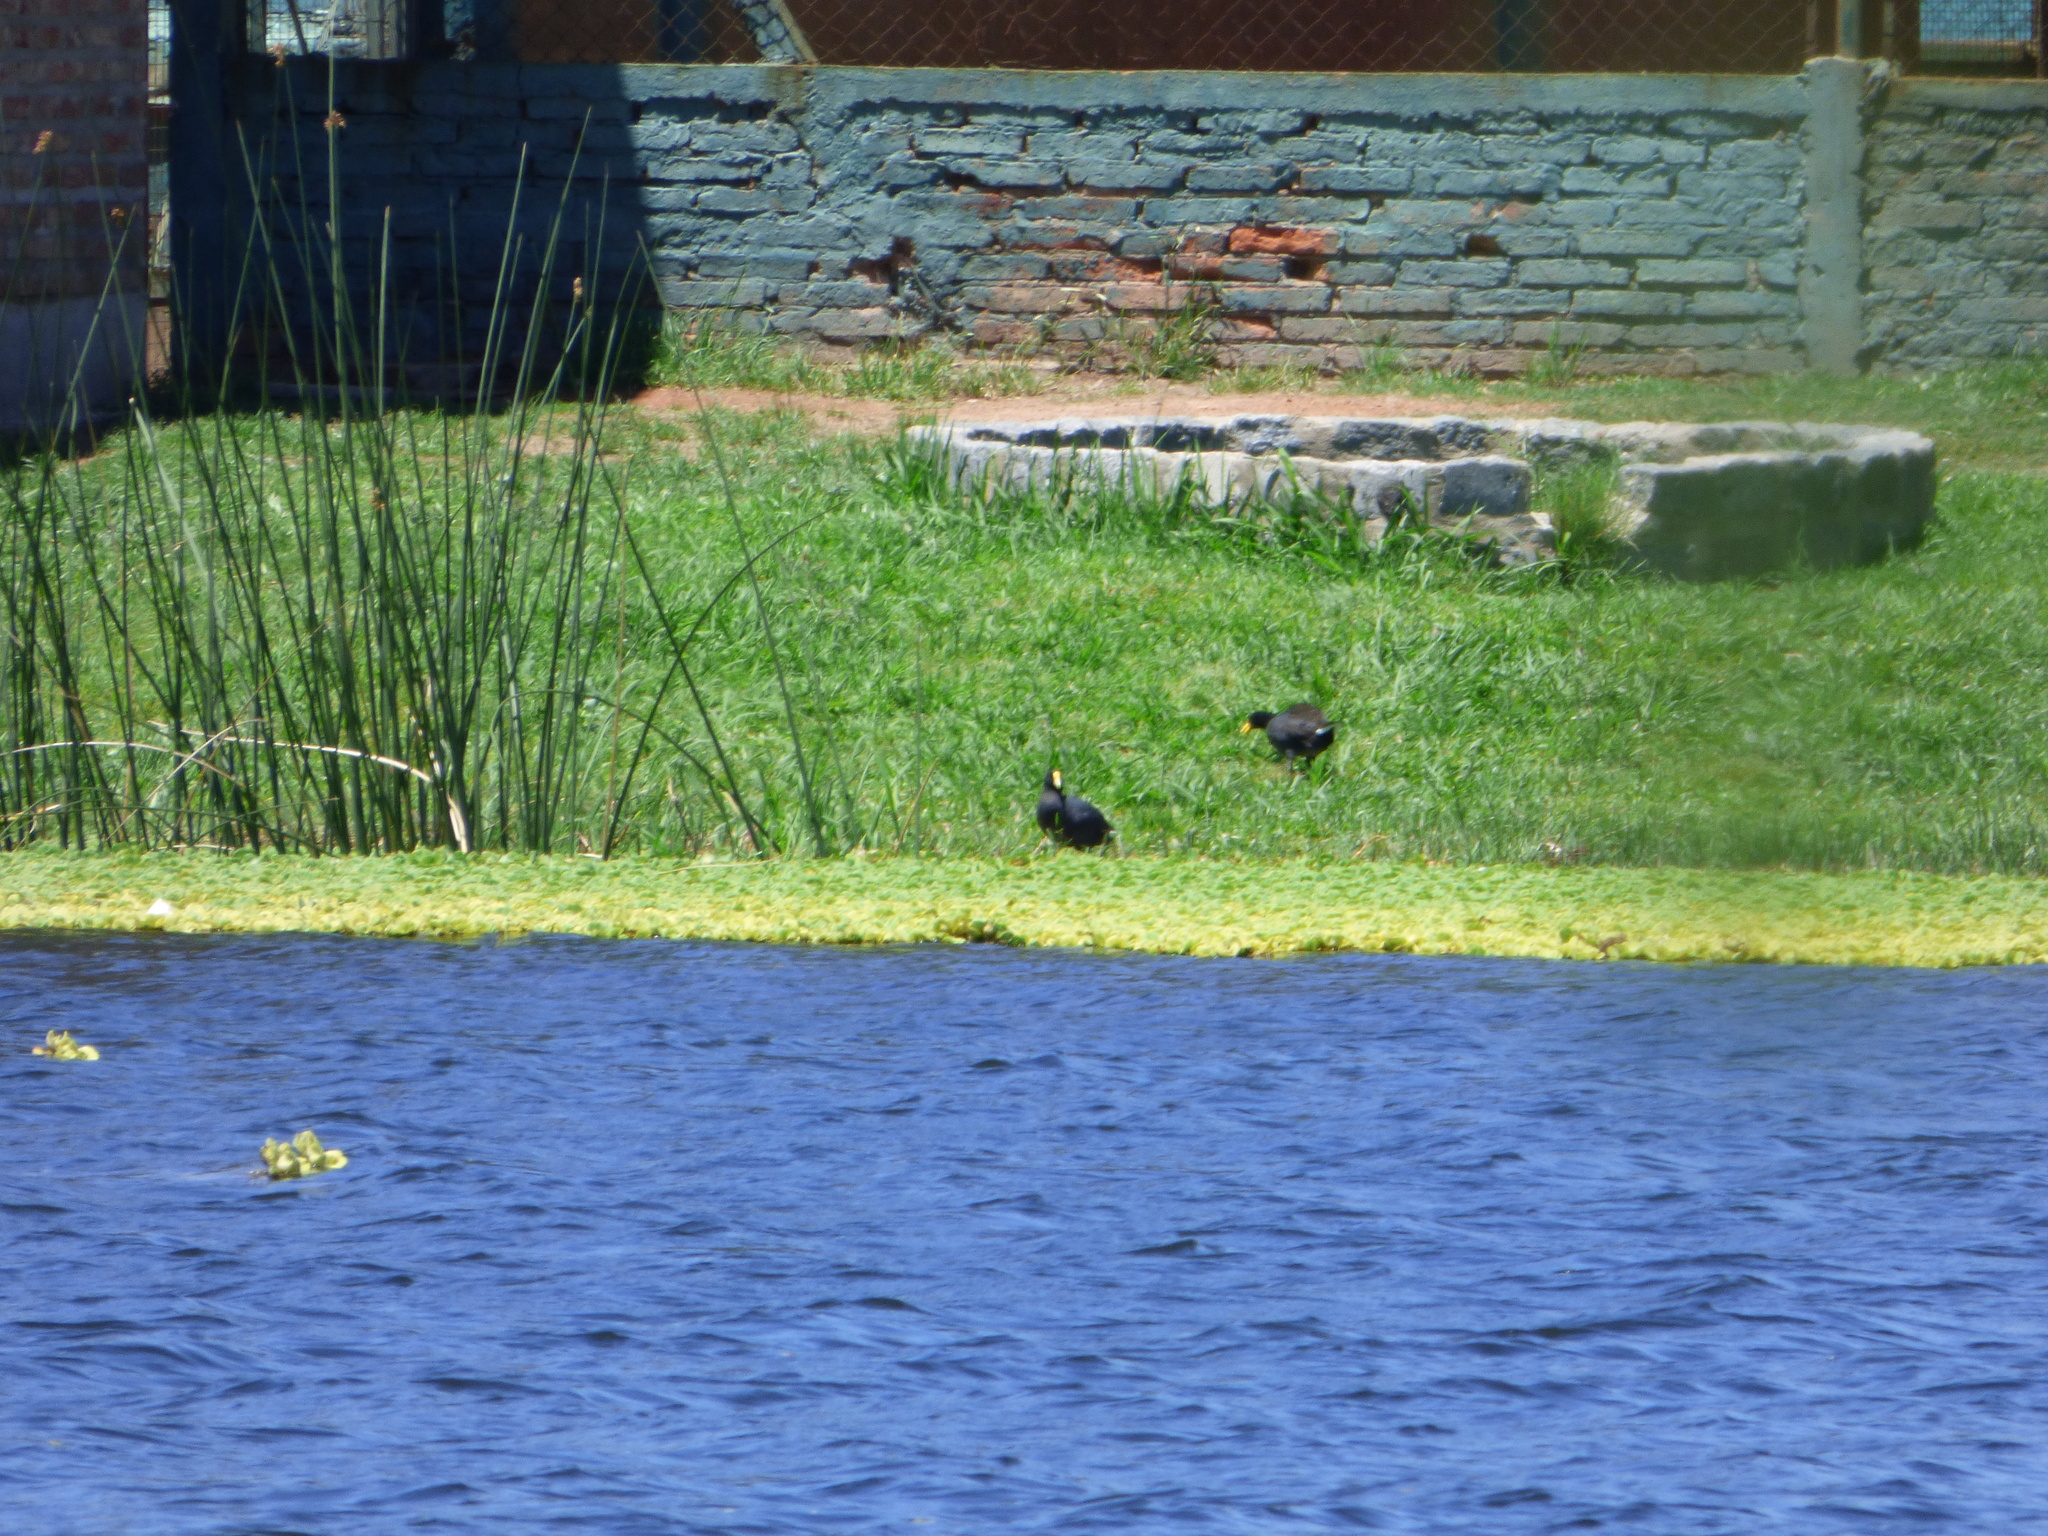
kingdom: Animalia
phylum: Chordata
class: Aves
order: Gruiformes
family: Rallidae
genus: Fulica
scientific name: Fulica leucoptera
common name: White-winged coot
